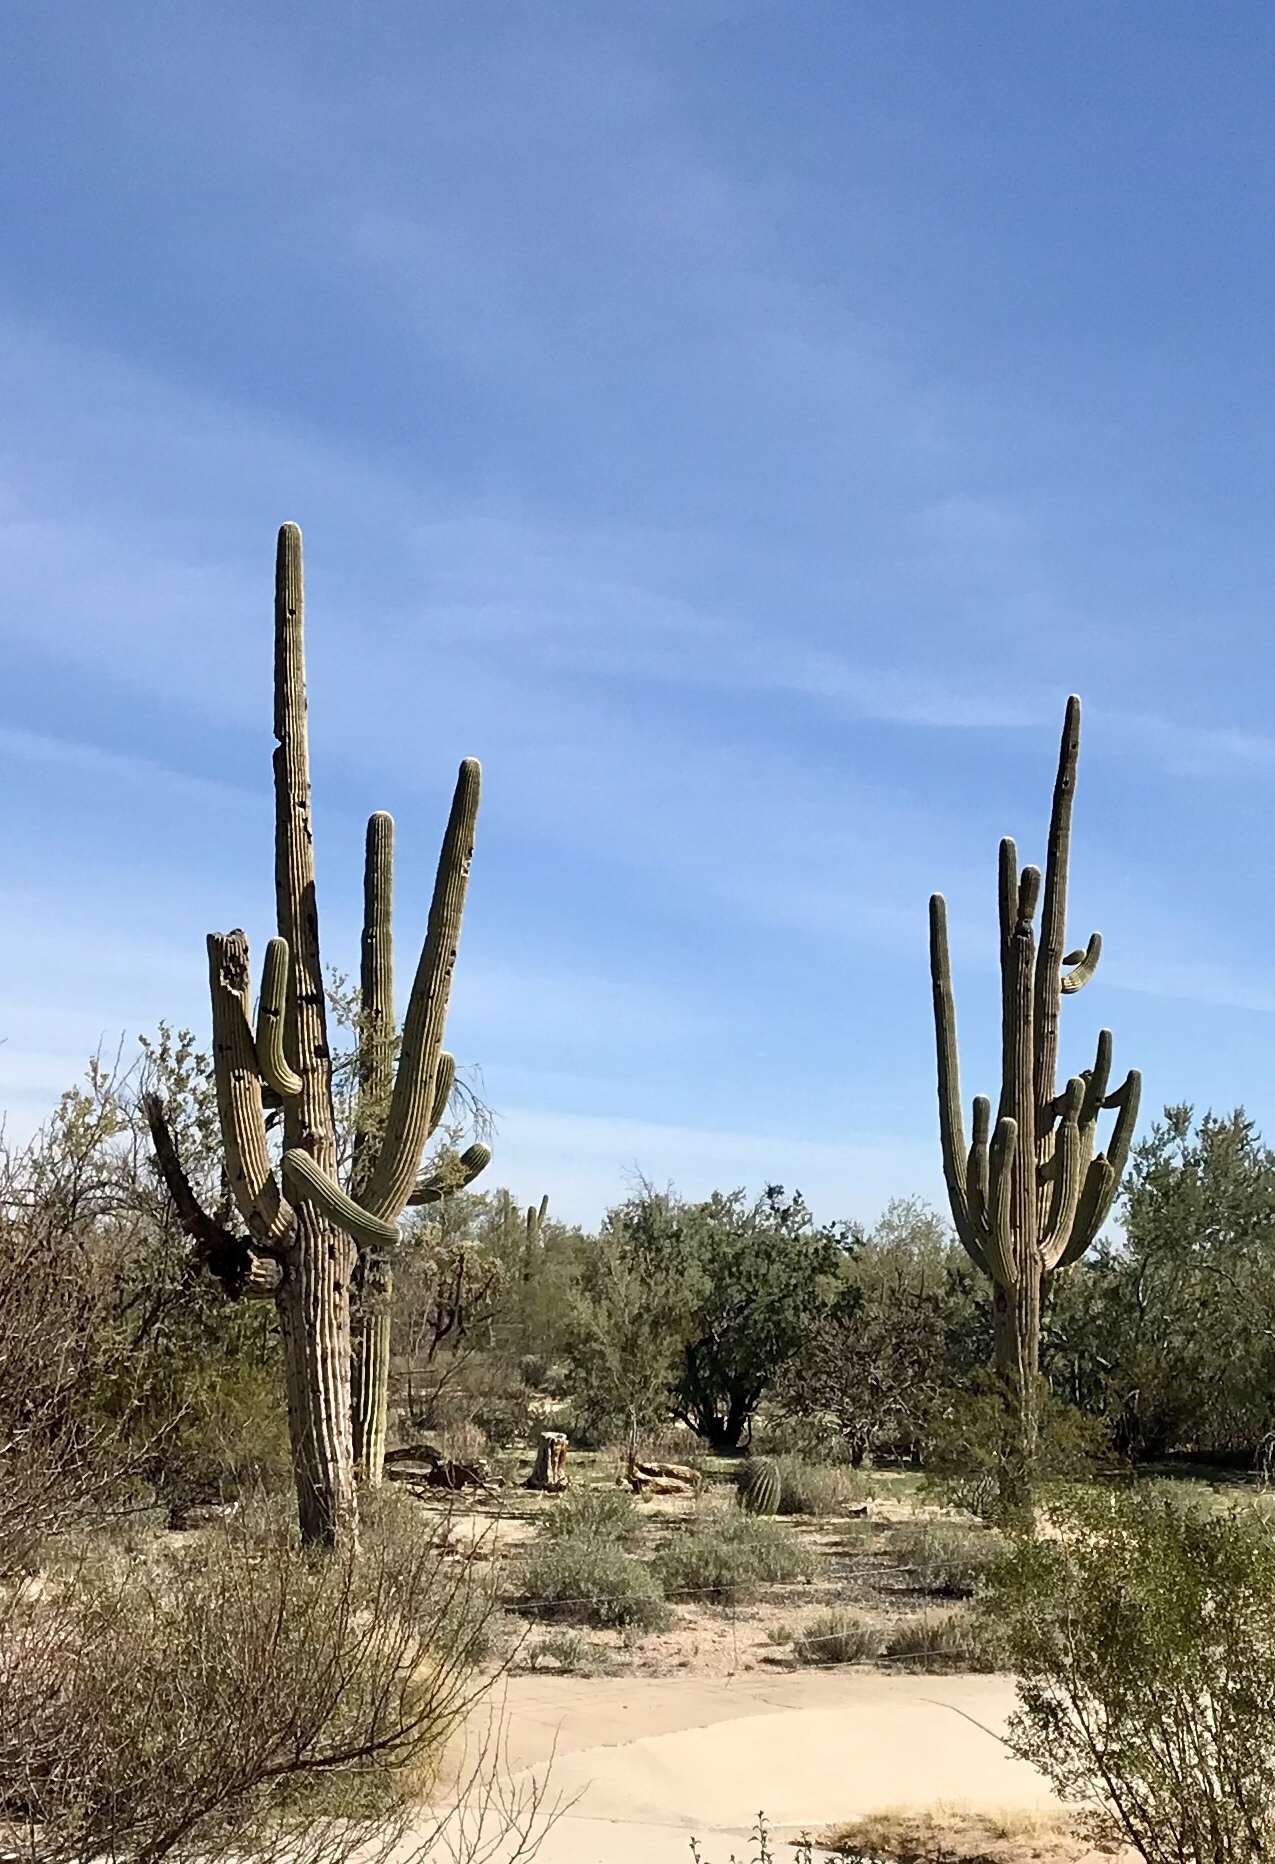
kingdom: Plantae
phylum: Tracheophyta
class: Magnoliopsida
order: Caryophyllales
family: Cactaceae
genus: Carnegiea
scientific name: Carnegiea gigantea
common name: Saguaro
